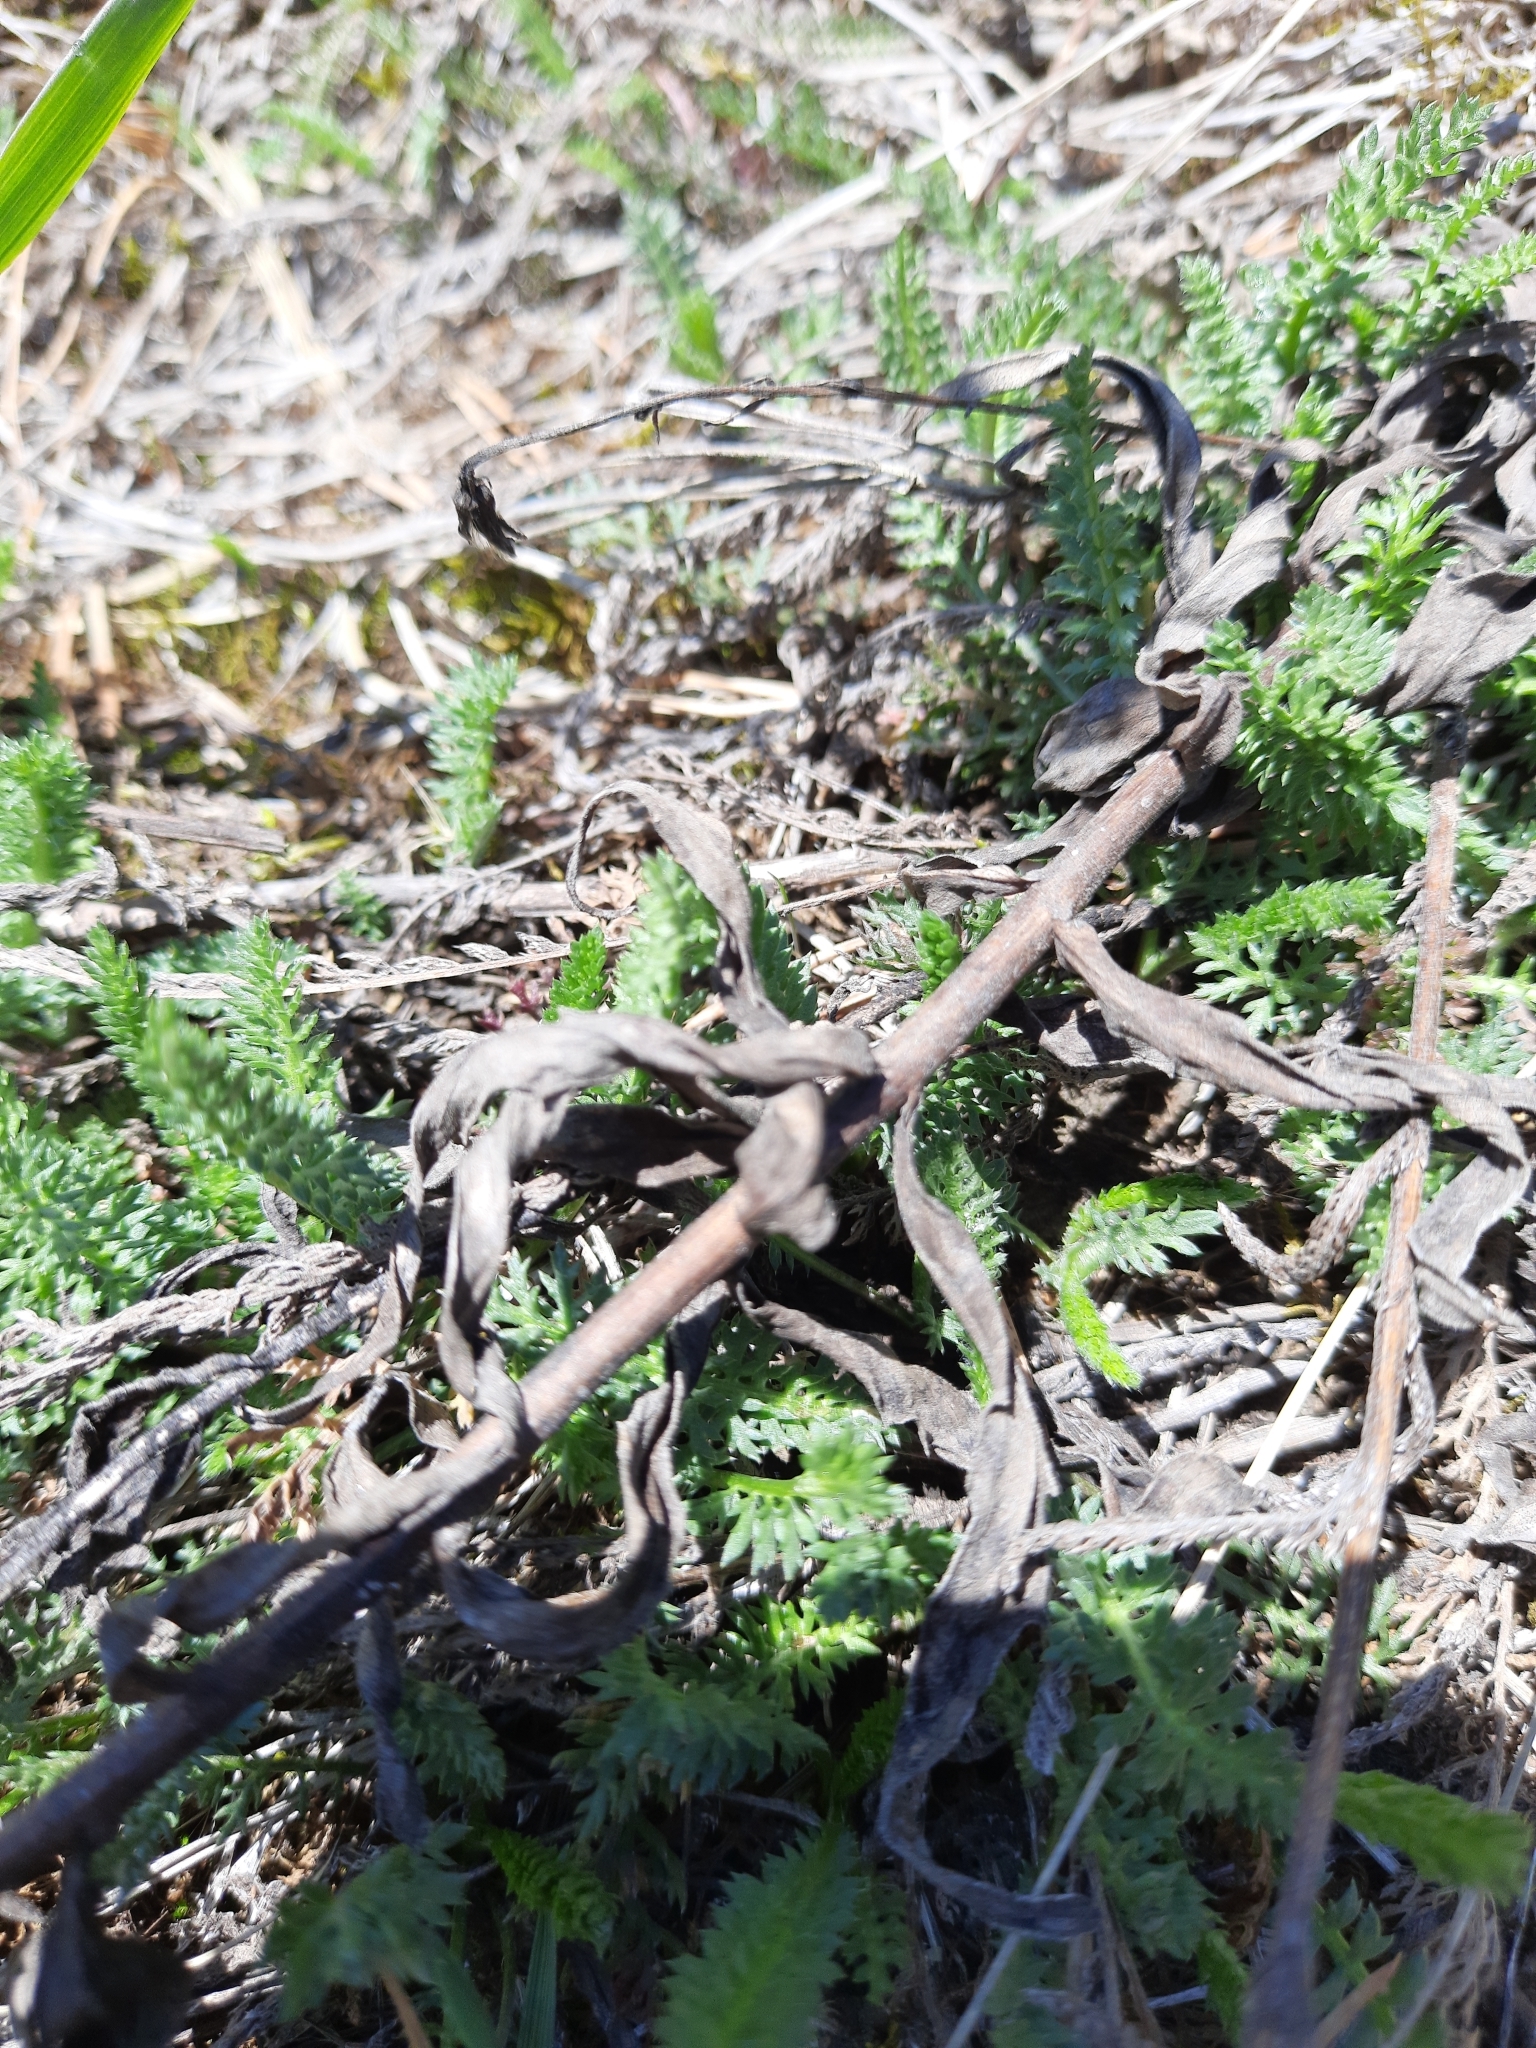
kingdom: Plantae
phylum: Tracheophyta
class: Magnoliopsida
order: Asterales
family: Asteraceae
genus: Achillea
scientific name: Achillea millefolium
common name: Yarrow
